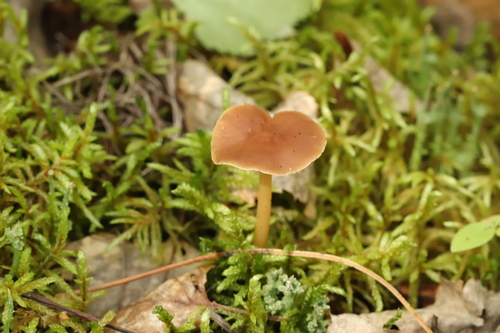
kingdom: Fungi
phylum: Basidiomycota
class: Agaricomycetes
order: Agaricales
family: Omphalotaceae
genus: Gymnopus
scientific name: Gymnopus dryophilus
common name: Penny top
